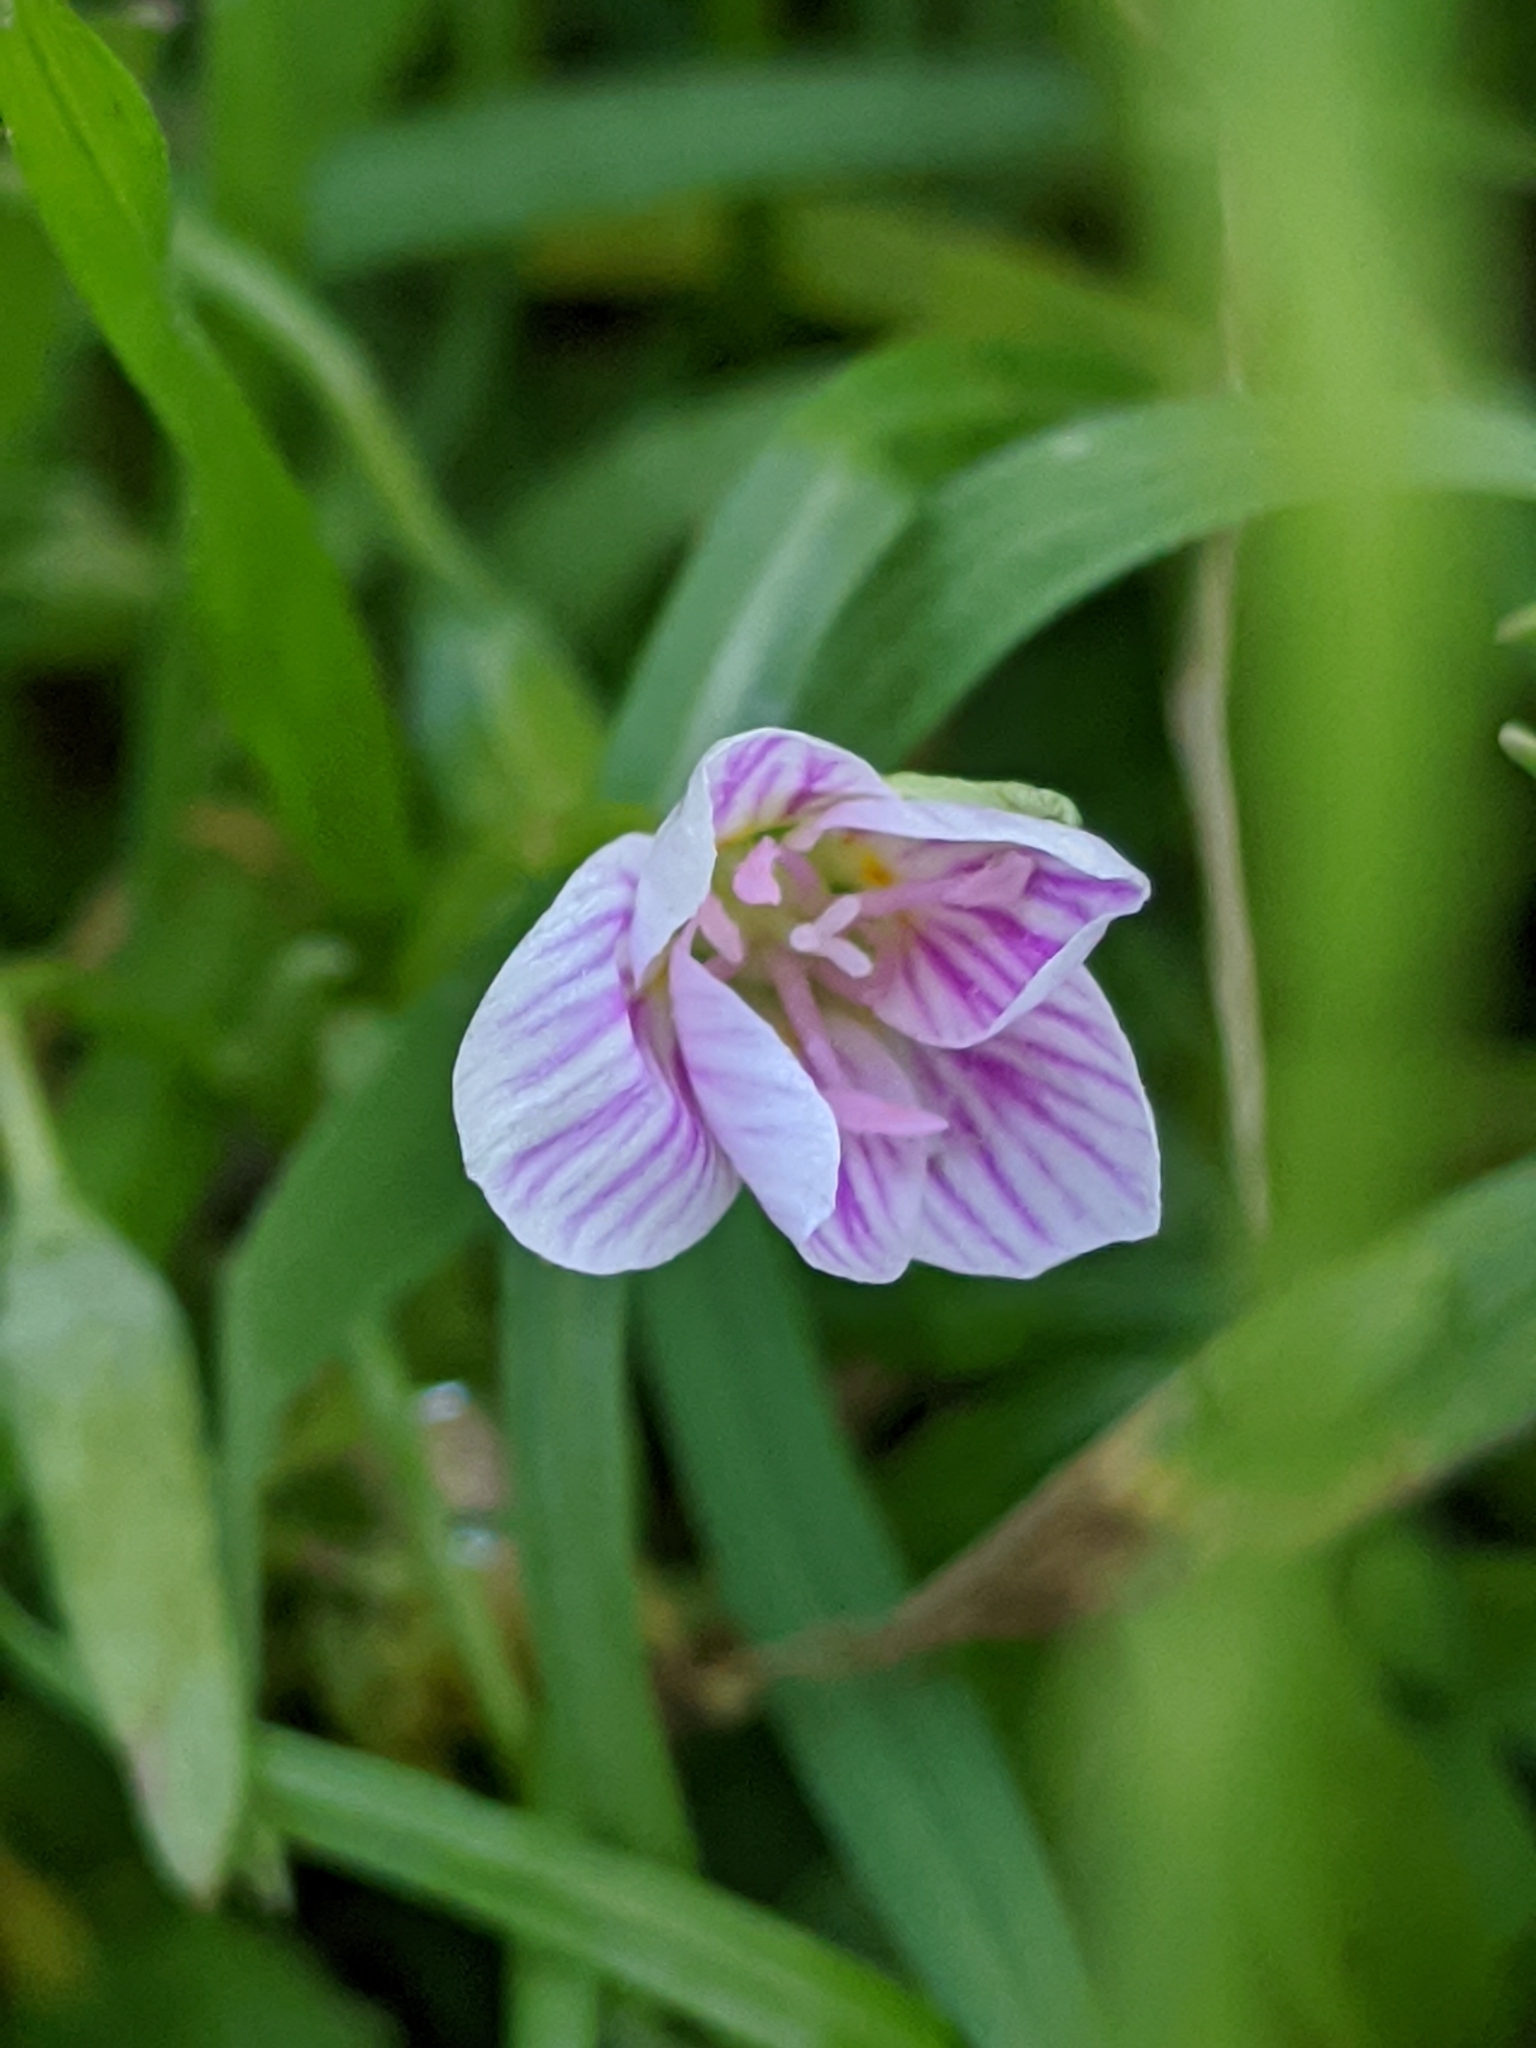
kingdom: Plantae
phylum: Tracheophyta
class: Magnoliopsida
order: Caryophyllales
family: Montiaceae
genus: Claytonia
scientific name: Claytonia virginica
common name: Virginia springbeauty
